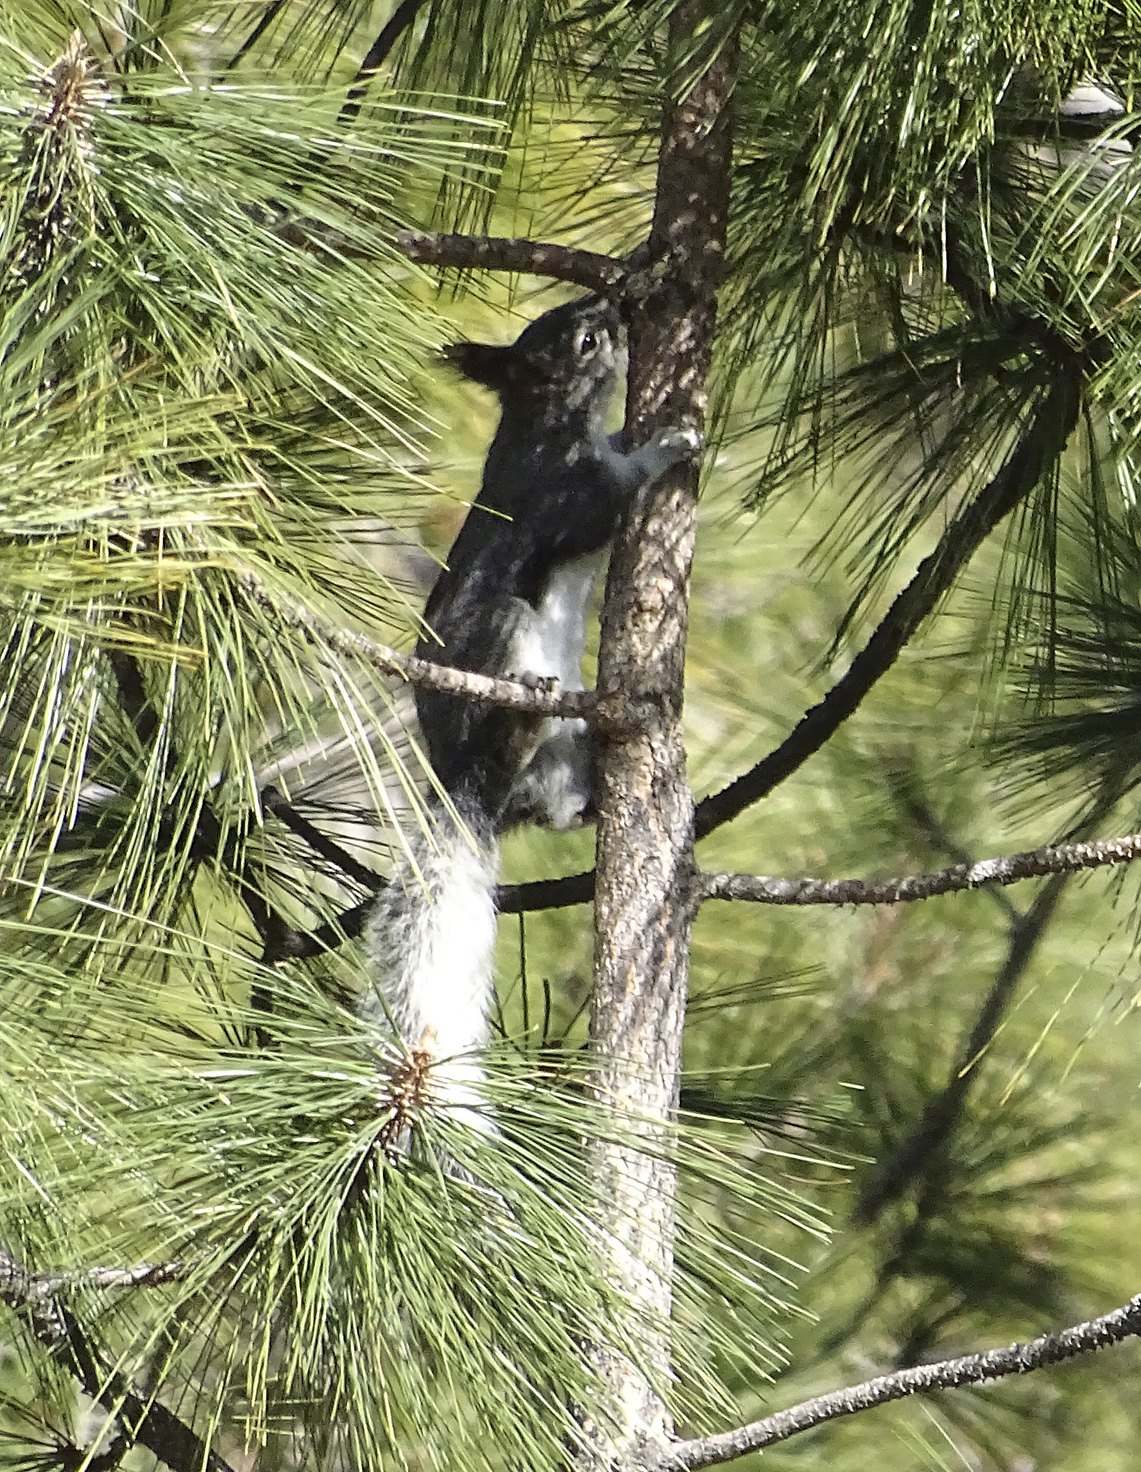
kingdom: Animalia
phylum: Chordata
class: Mammalia
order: Rodentia
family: Sciuridae
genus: Sciurus
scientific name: Sciurus aberti
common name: Abert's squirrel
